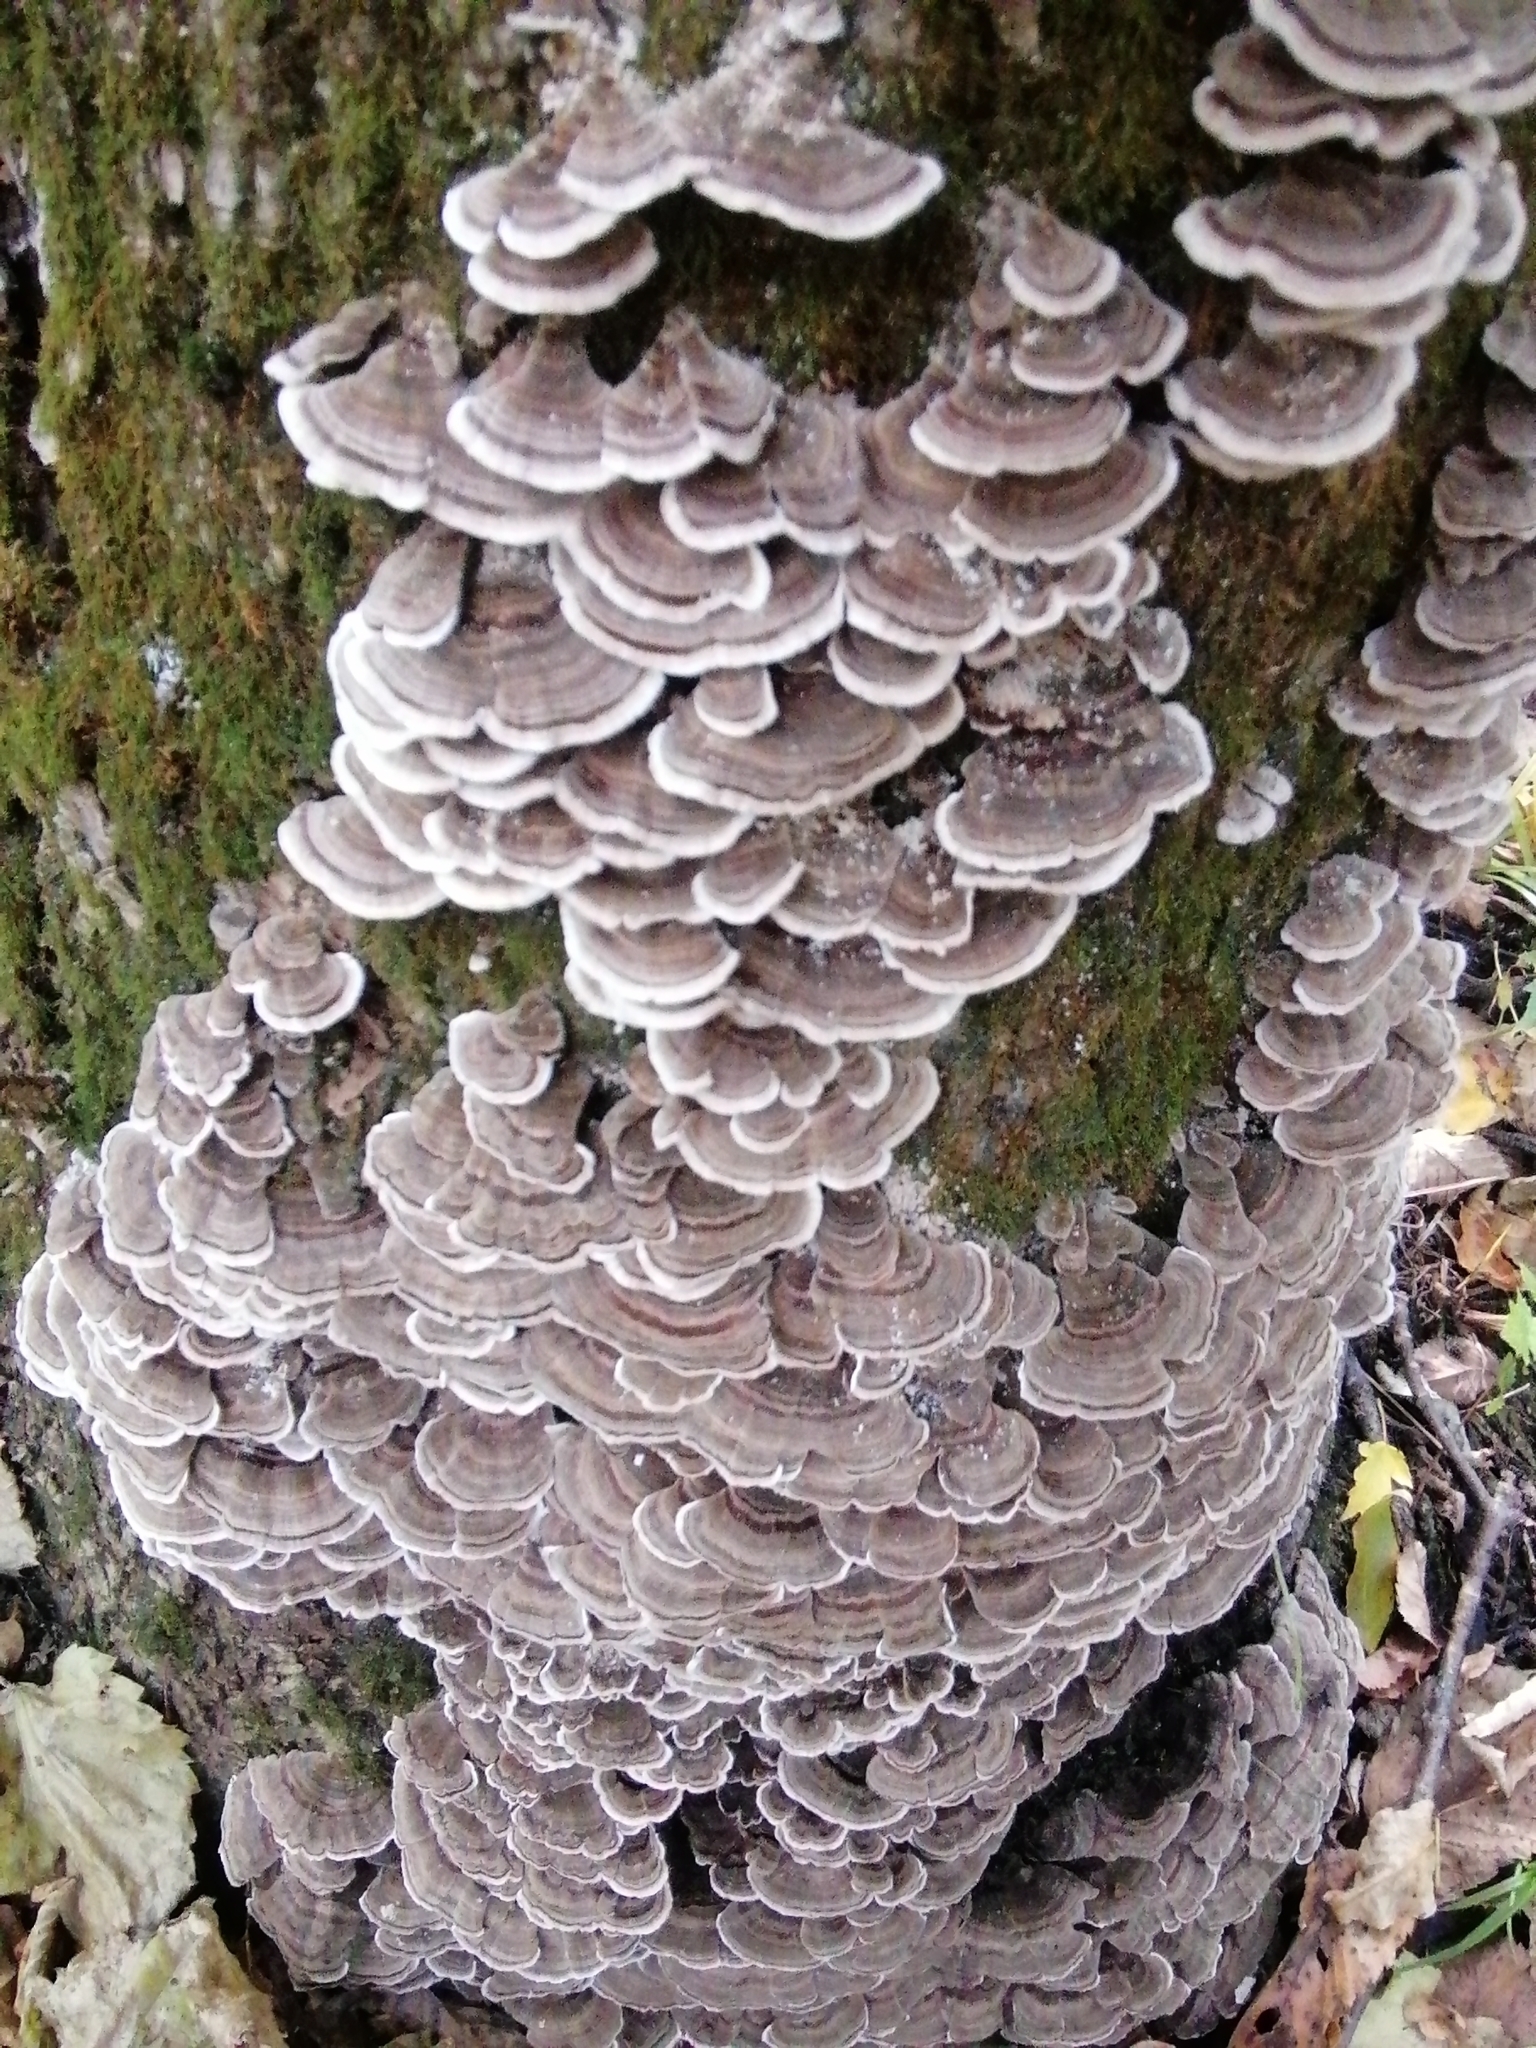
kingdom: Fungi
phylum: Basidiomycota
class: Agaricomycetes
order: Polyporales
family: Polyporaceae
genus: Trametes
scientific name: Trametes versicolor
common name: Turkeytail
